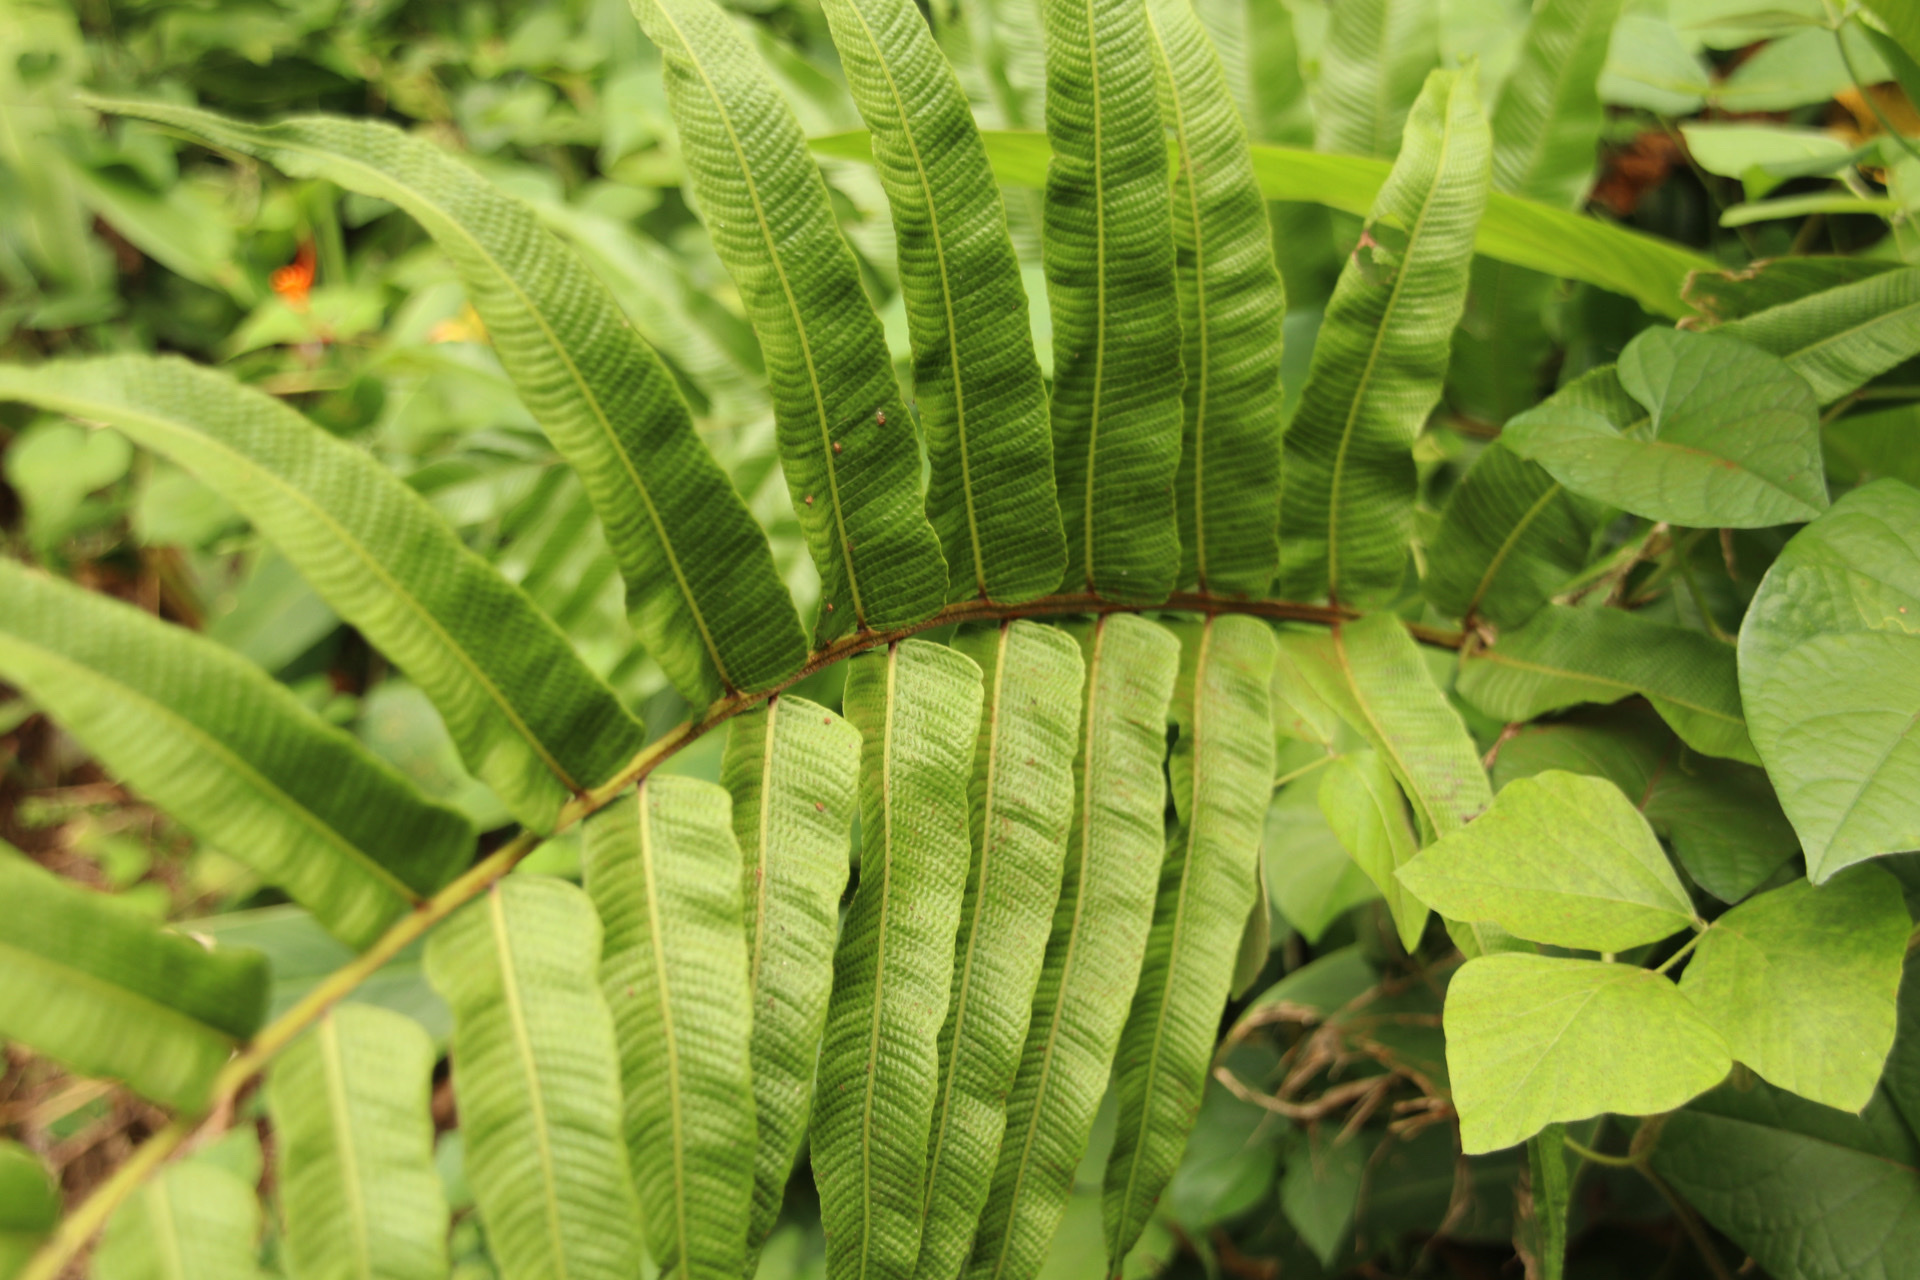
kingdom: Plantae
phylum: Tracheophyta
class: Polypodiopsida
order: Polypodiales
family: Thelypteridaceae
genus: Meniscium
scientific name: Meniscium reticulatum
